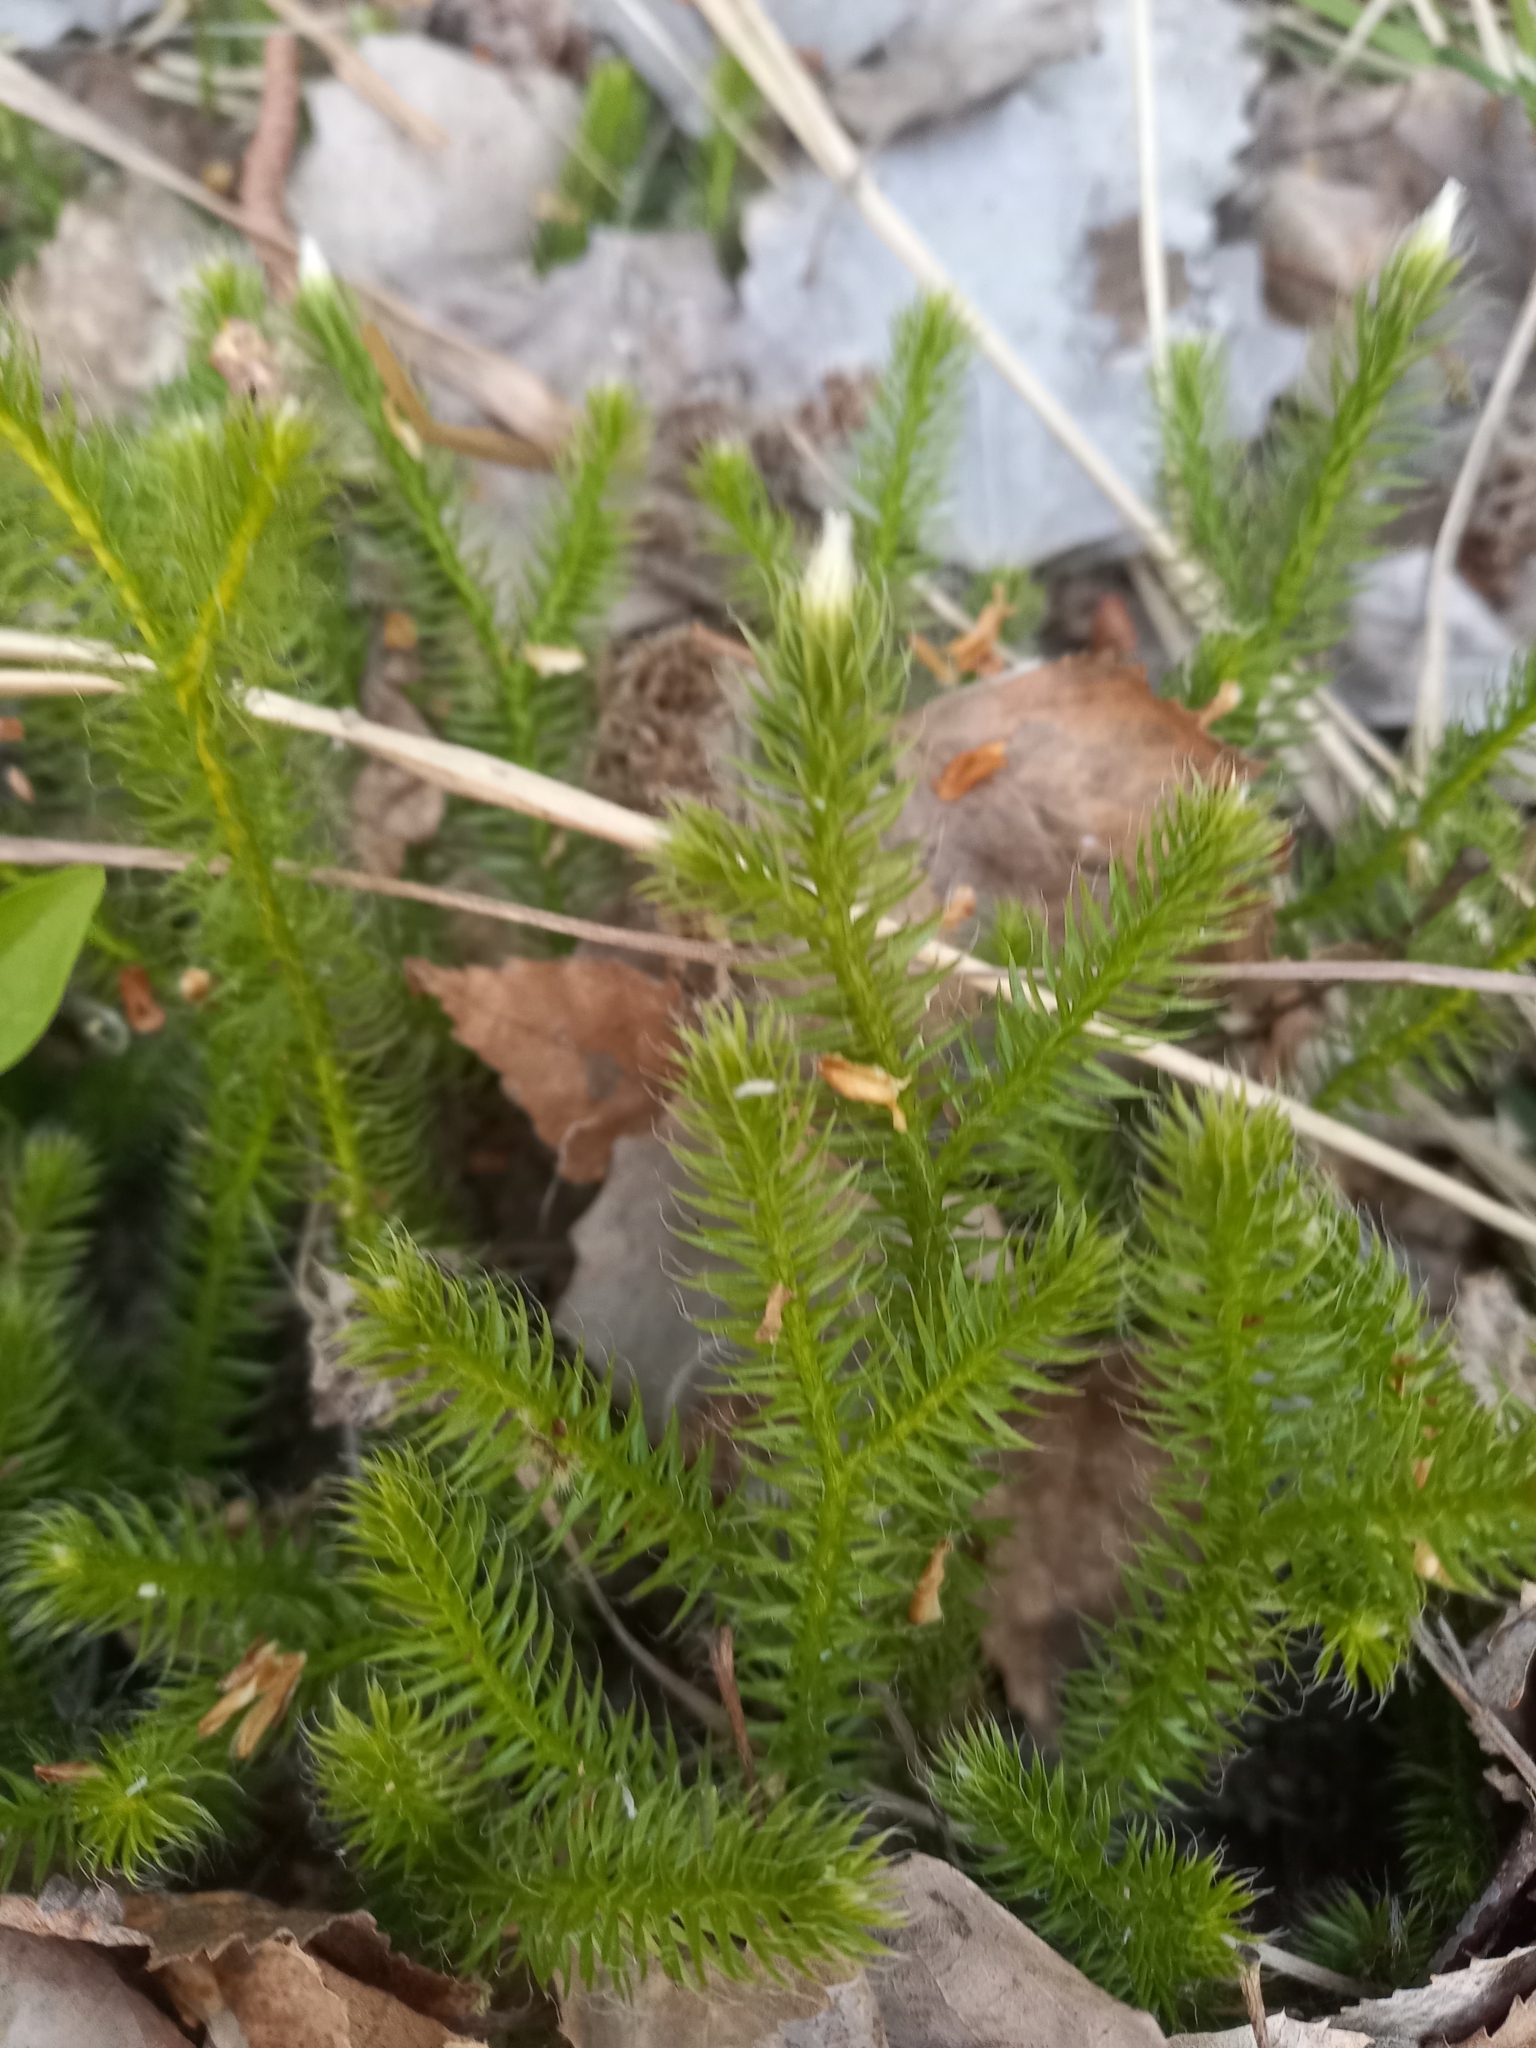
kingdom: Plantae
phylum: Tracheophyta
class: Lycopodiopsida
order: Lycopodiales
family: Lycopodiaceae
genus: Lycopodium
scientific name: Lycopodium clavatum
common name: Stag's-horn clubmoss
